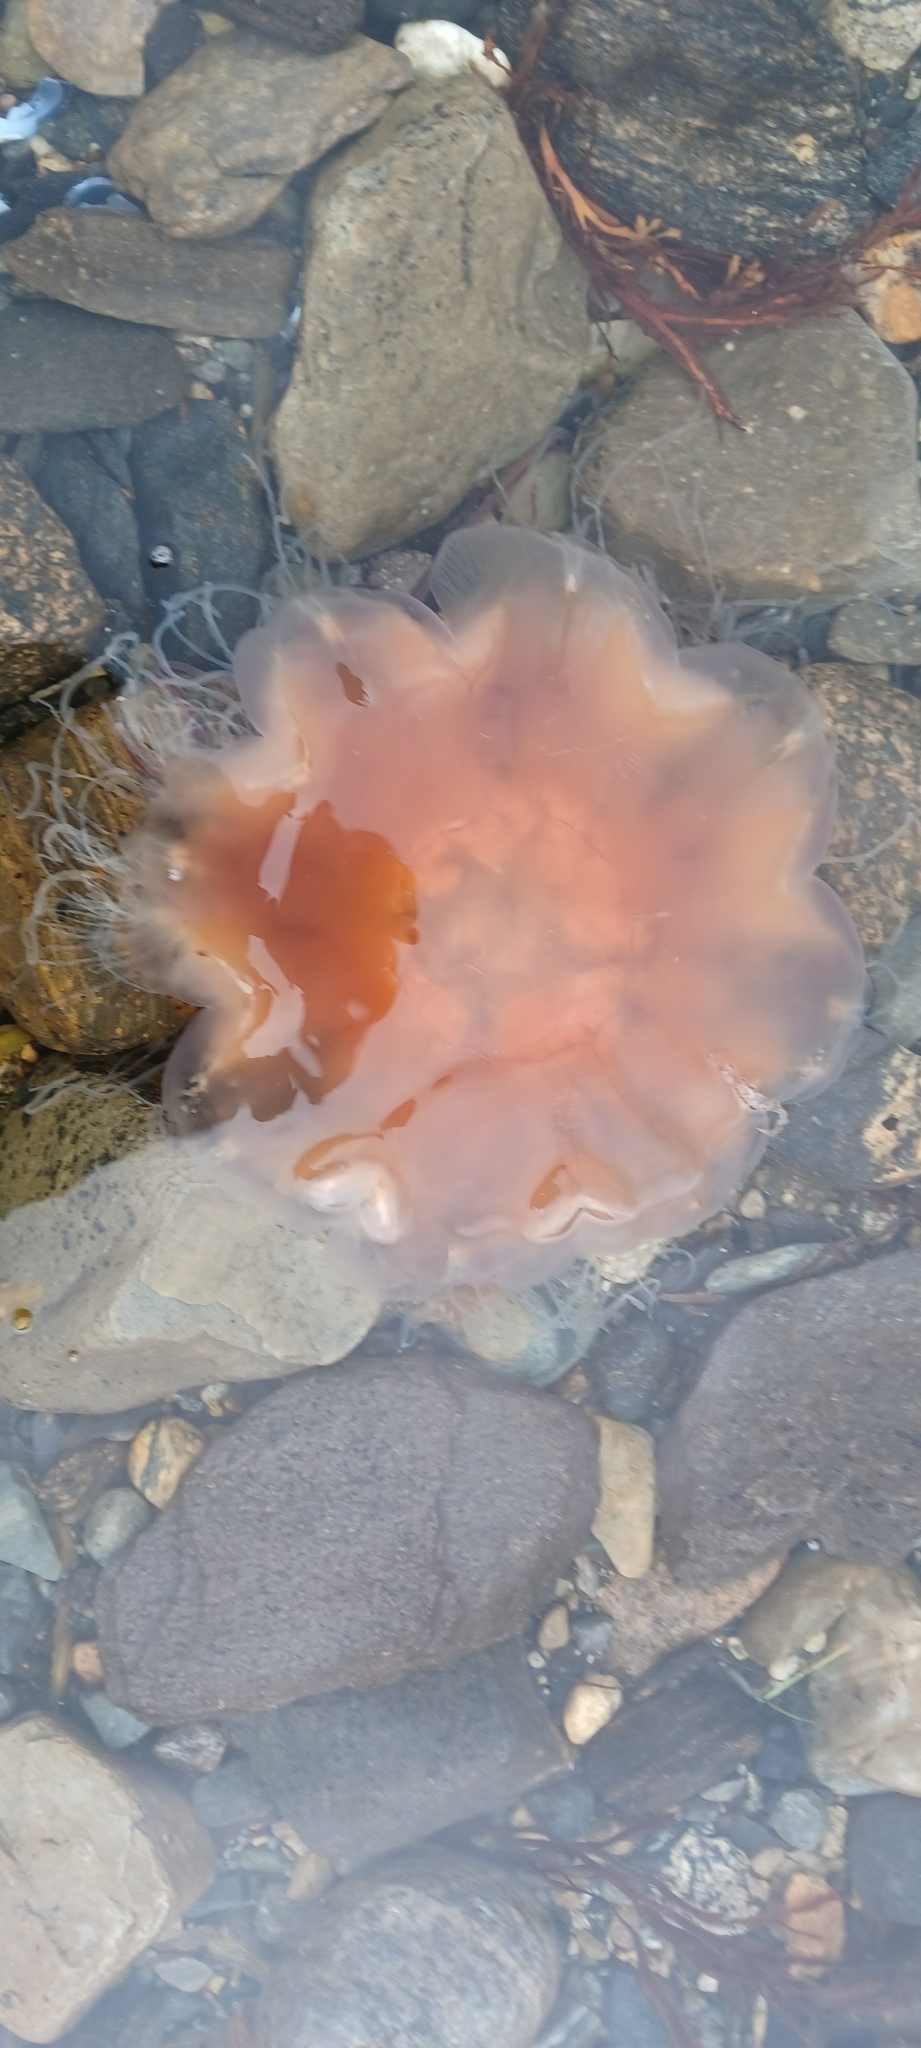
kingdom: Animalia
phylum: Cnidaria
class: Scyphozoa
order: Semaeostomeae
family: Cyaneidae
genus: Cyanea
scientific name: Cyanea capillata
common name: Lion's mane jellyfish
